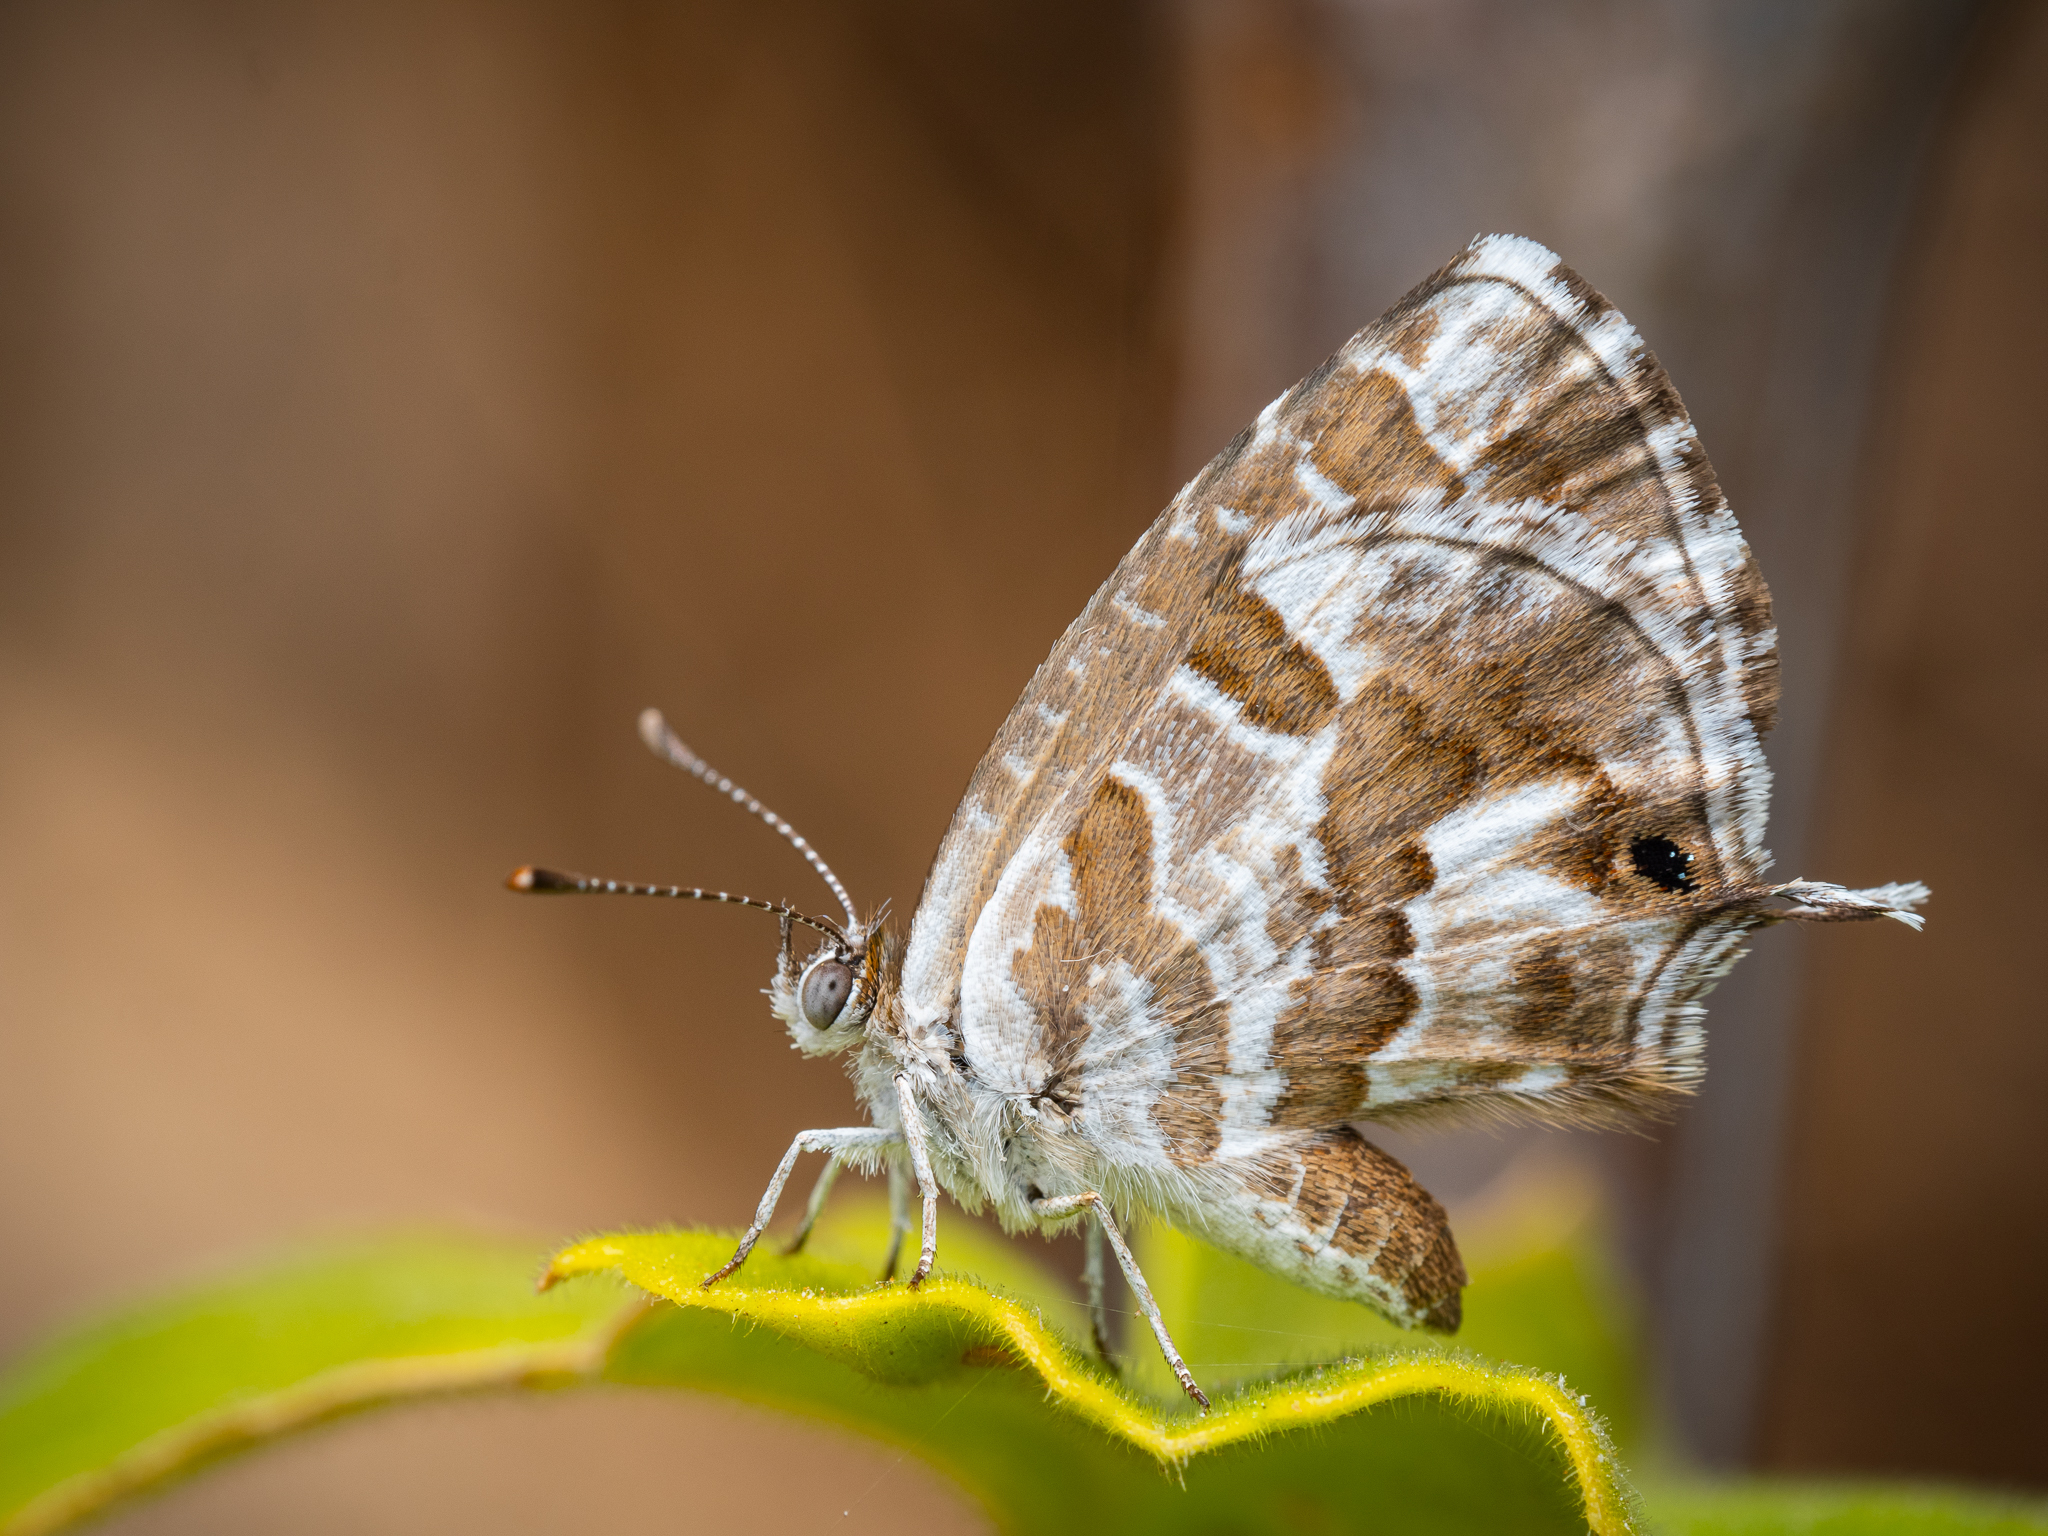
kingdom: Animalia
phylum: Arthropoda
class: Insecta
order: Lepidoptera
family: Lycaenidae
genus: Cacyreus
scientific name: Cacyreus marshalli
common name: Geranium bronze
